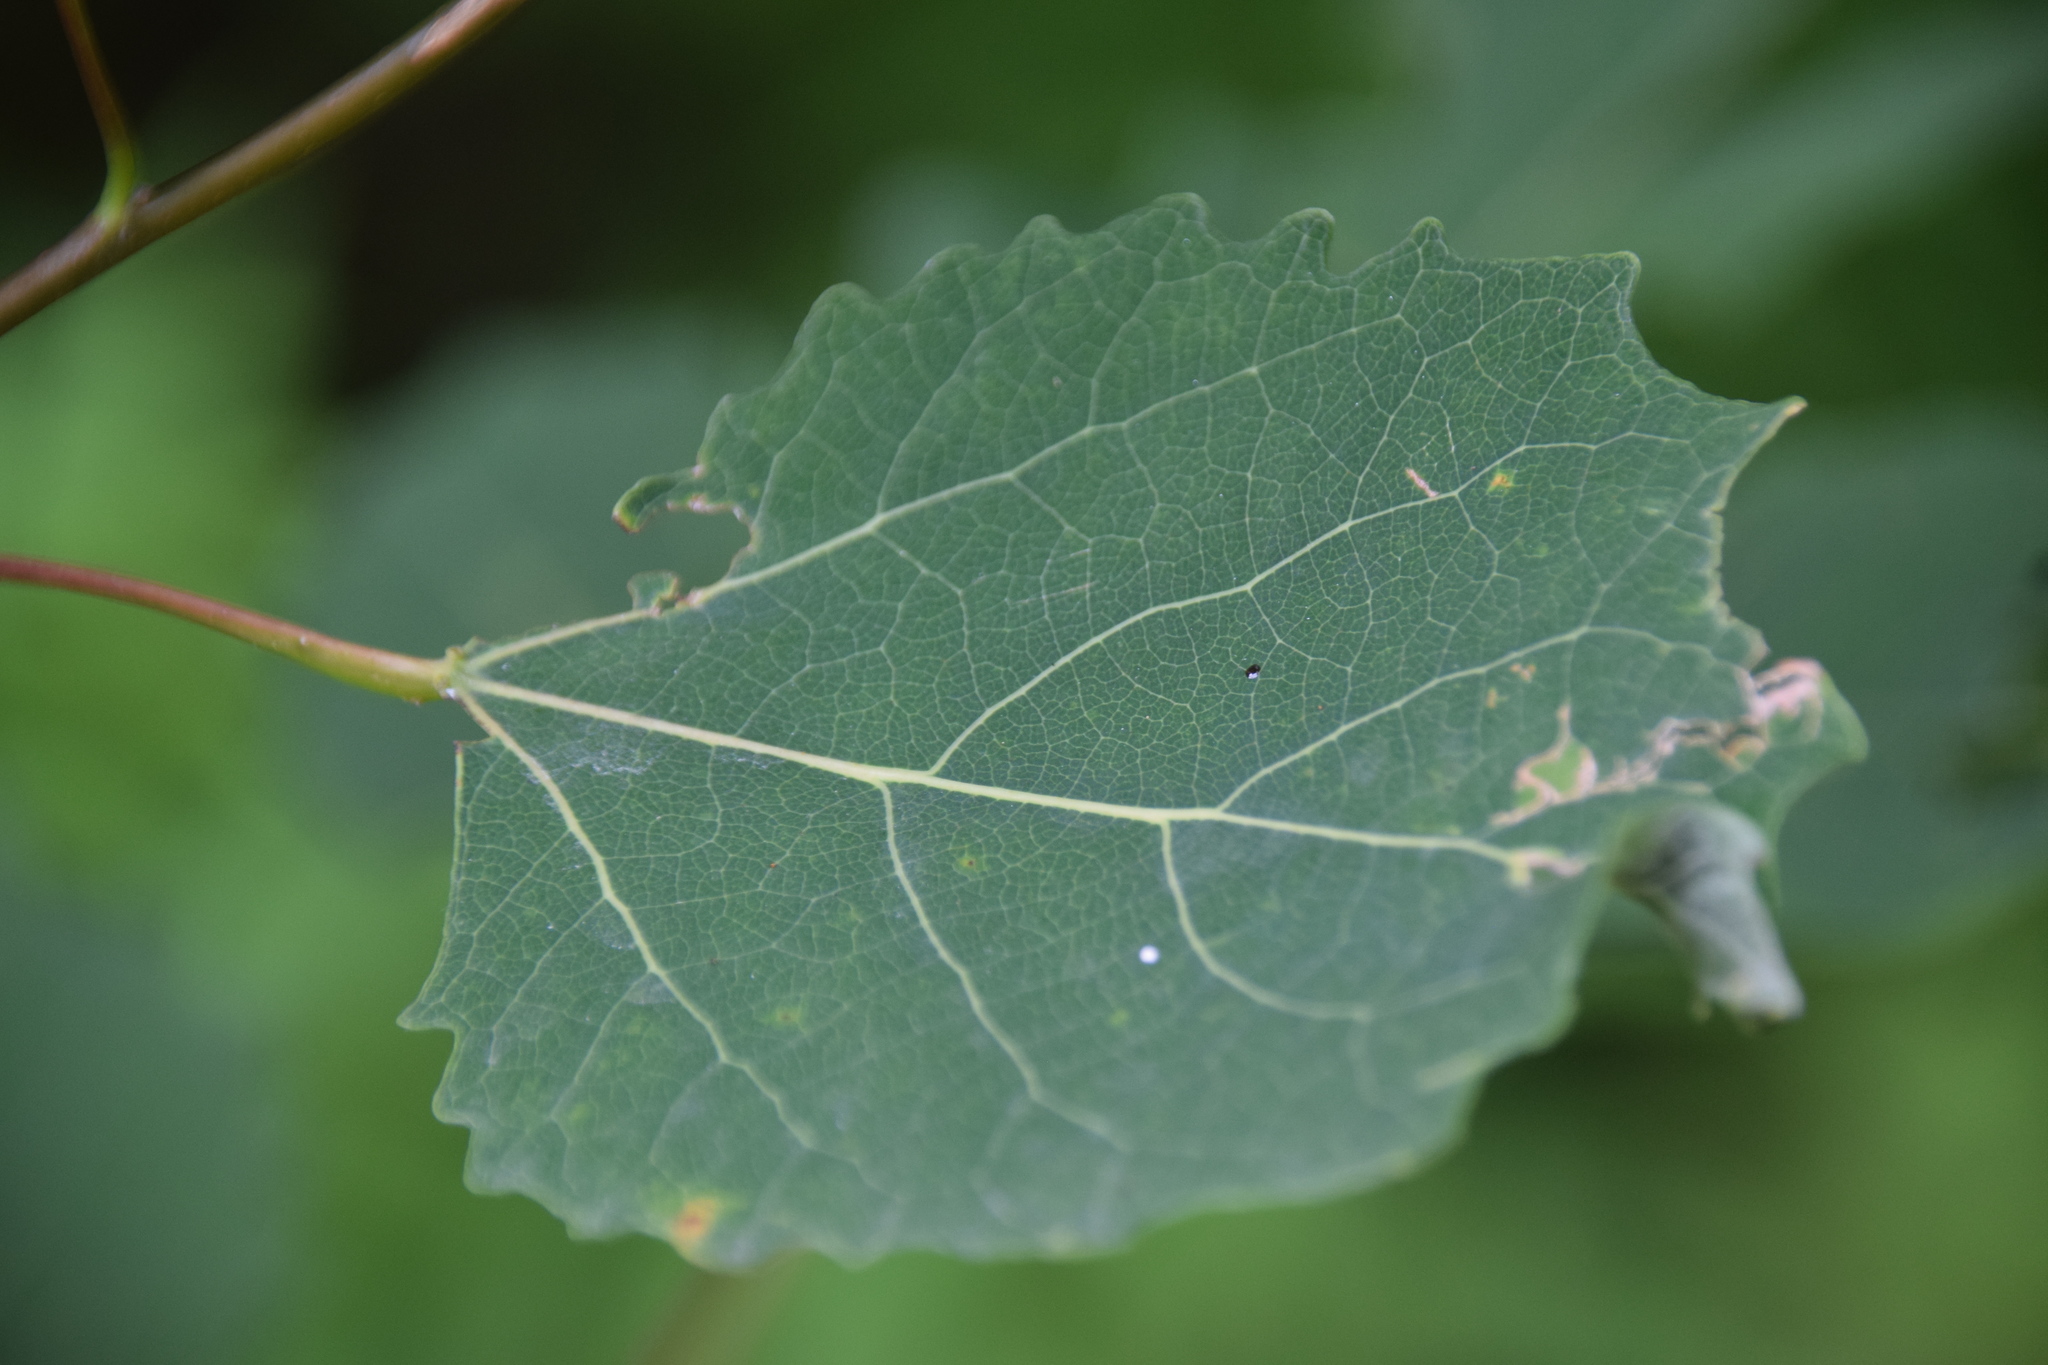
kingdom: Plantae
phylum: Tracheophyta
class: Magnoliopsida
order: Malpighiales
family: Salicaceae
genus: Populus
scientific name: Populus grandidentata
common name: Bigtooth aspen
